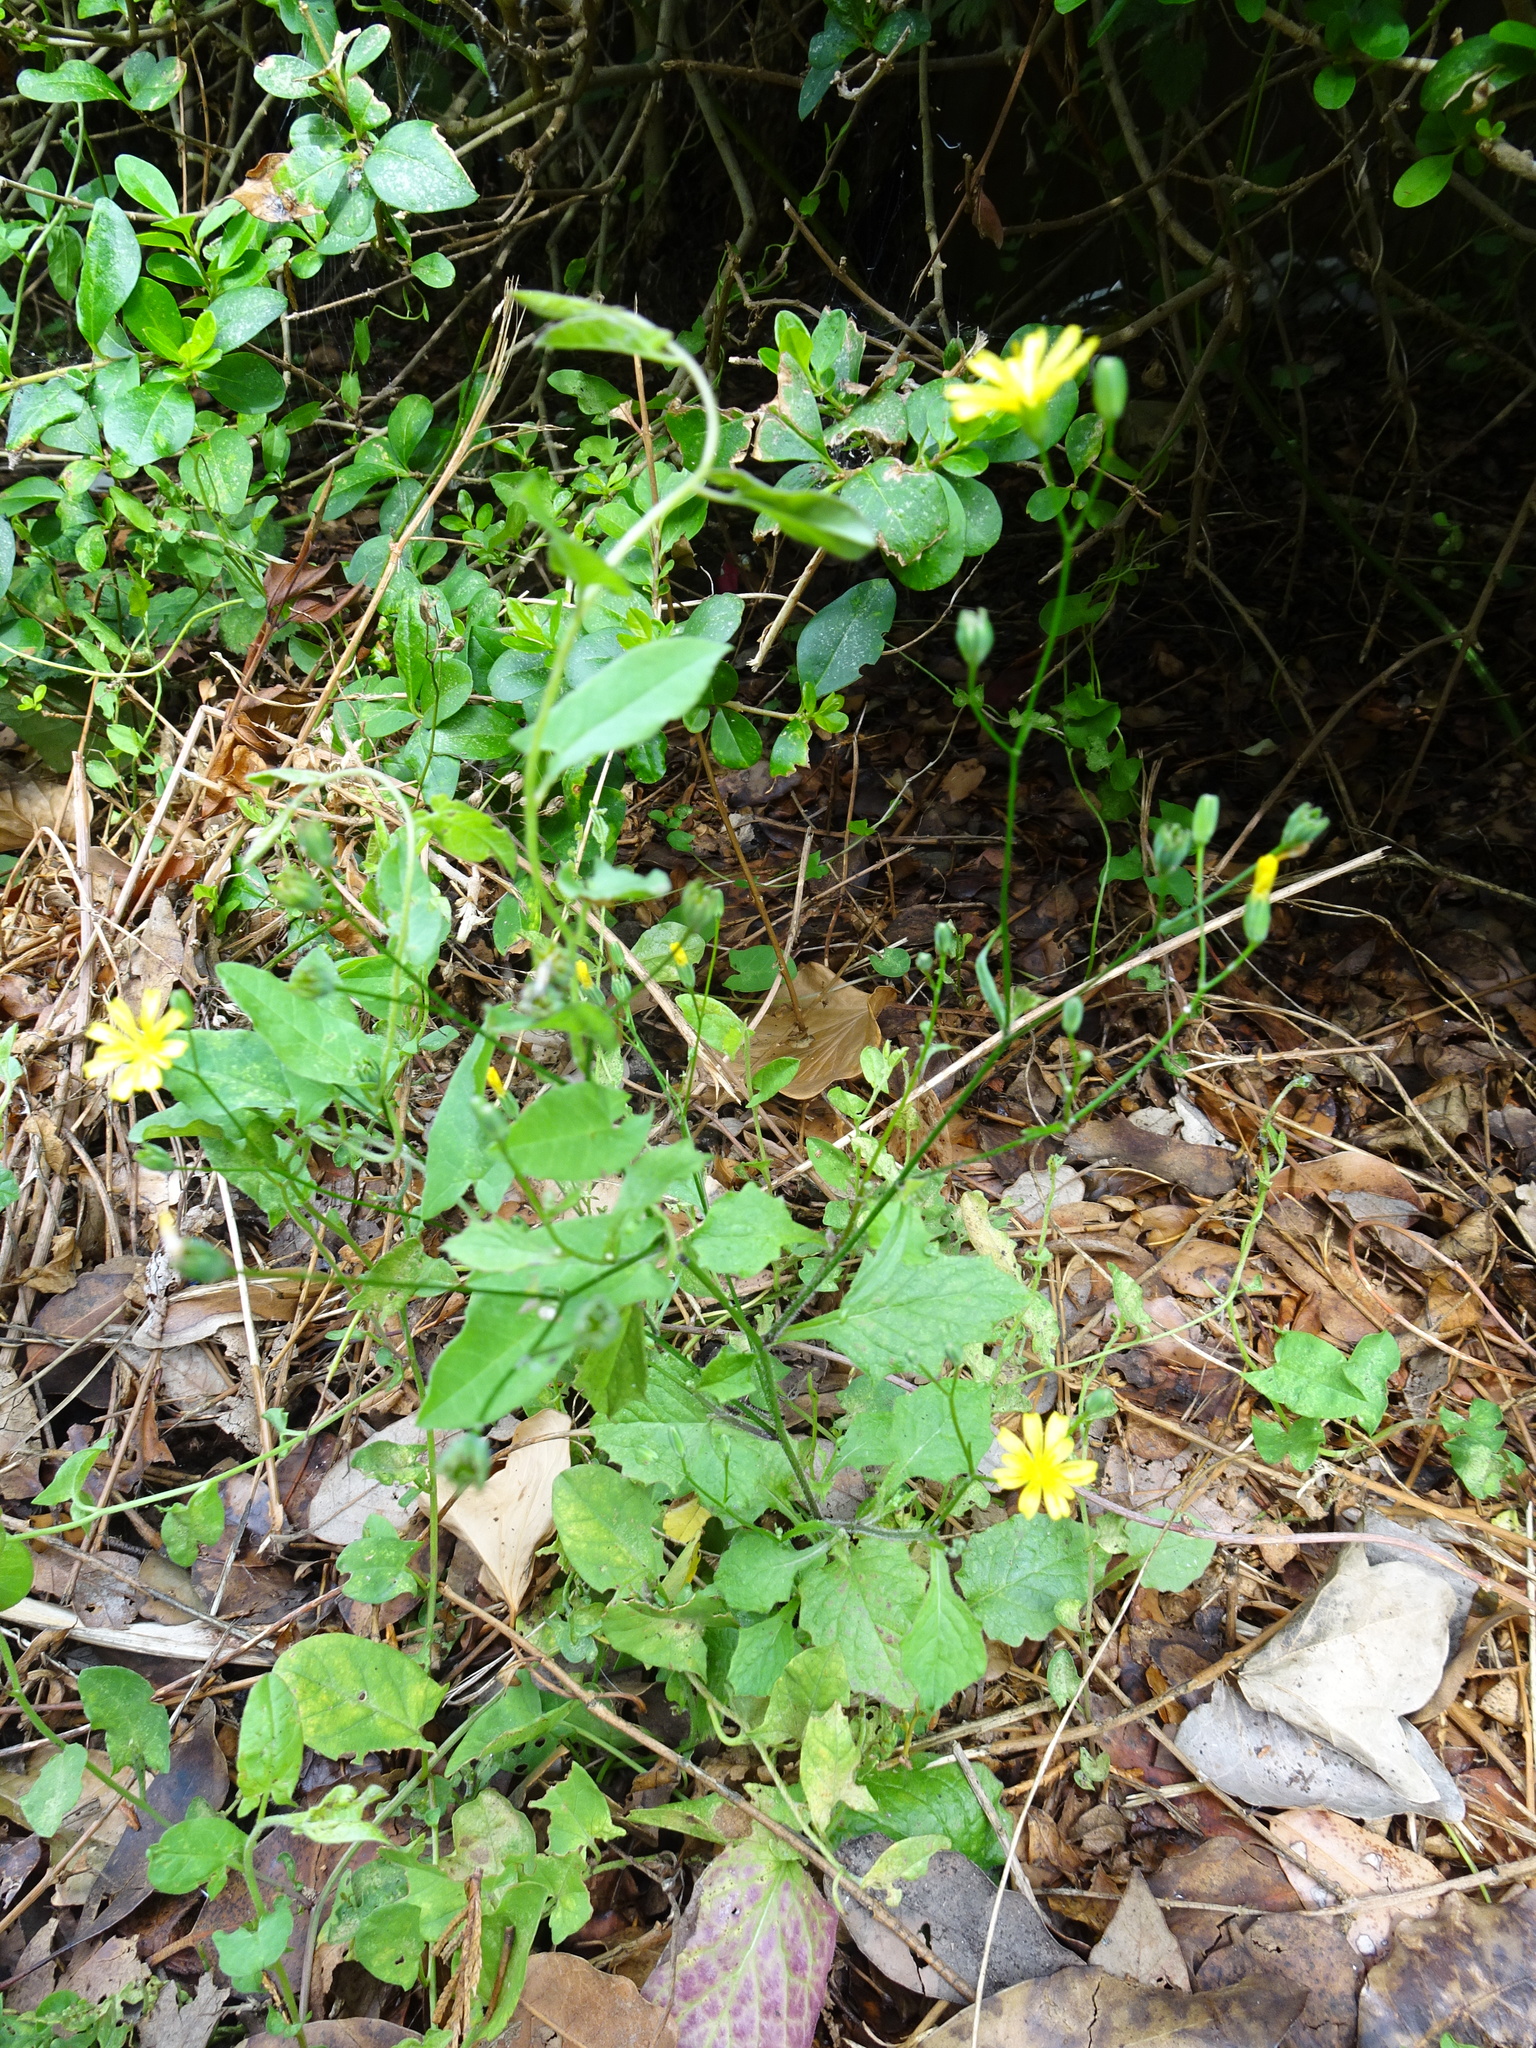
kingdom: Plantae
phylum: Tracheophyta
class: Magnoliopsida
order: Asterales
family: Asteraceae
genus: Lapsana
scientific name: Lapsana communis
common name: Nipplewort
